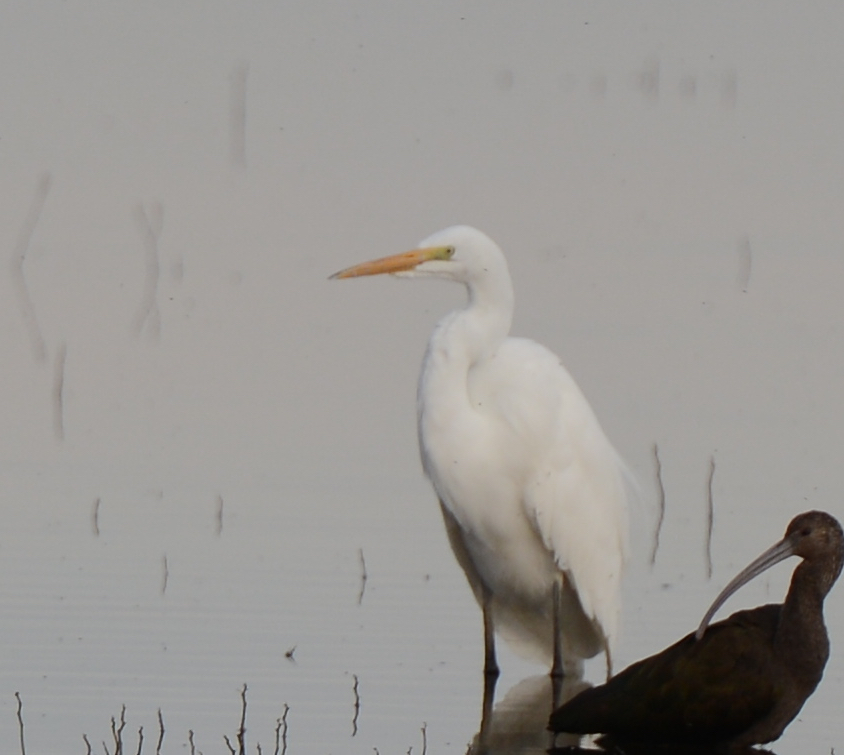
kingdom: Animalia
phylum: Chordata
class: Aves
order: Pelecaniformes
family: Ardeidae
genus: Ardea
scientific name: Ardea alba
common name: Great egret
